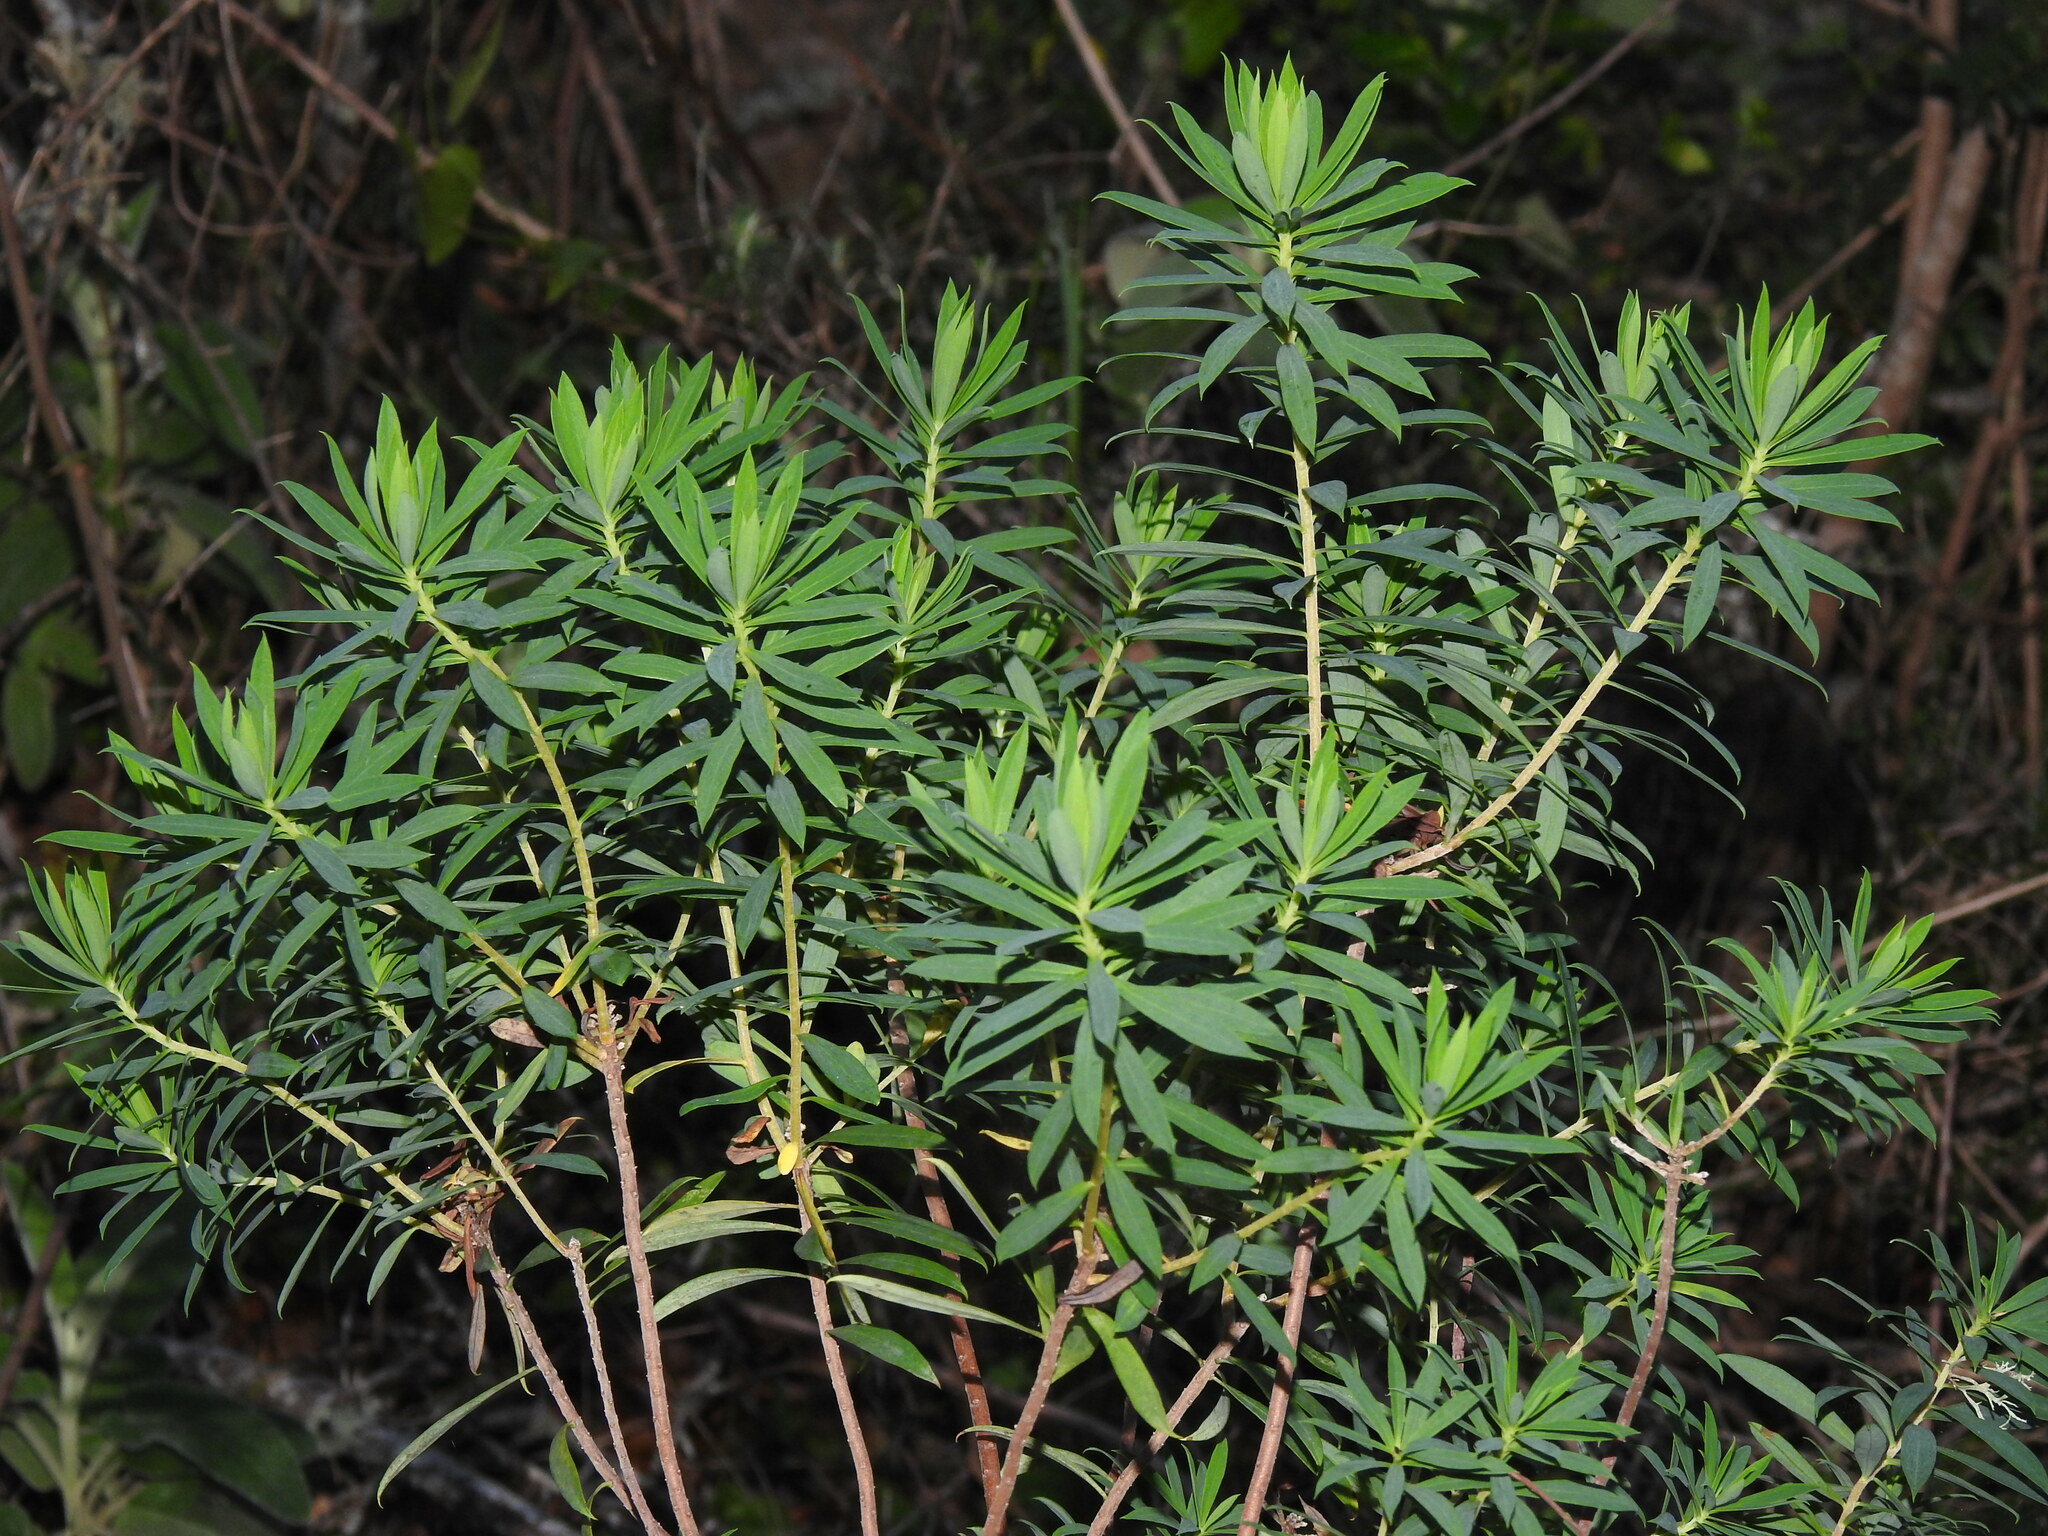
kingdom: Plantae
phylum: Tracheophyta
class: Magnoliopsida
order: Malvales
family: Thymelaeaceae
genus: Daphne
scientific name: Daphne gnidium
